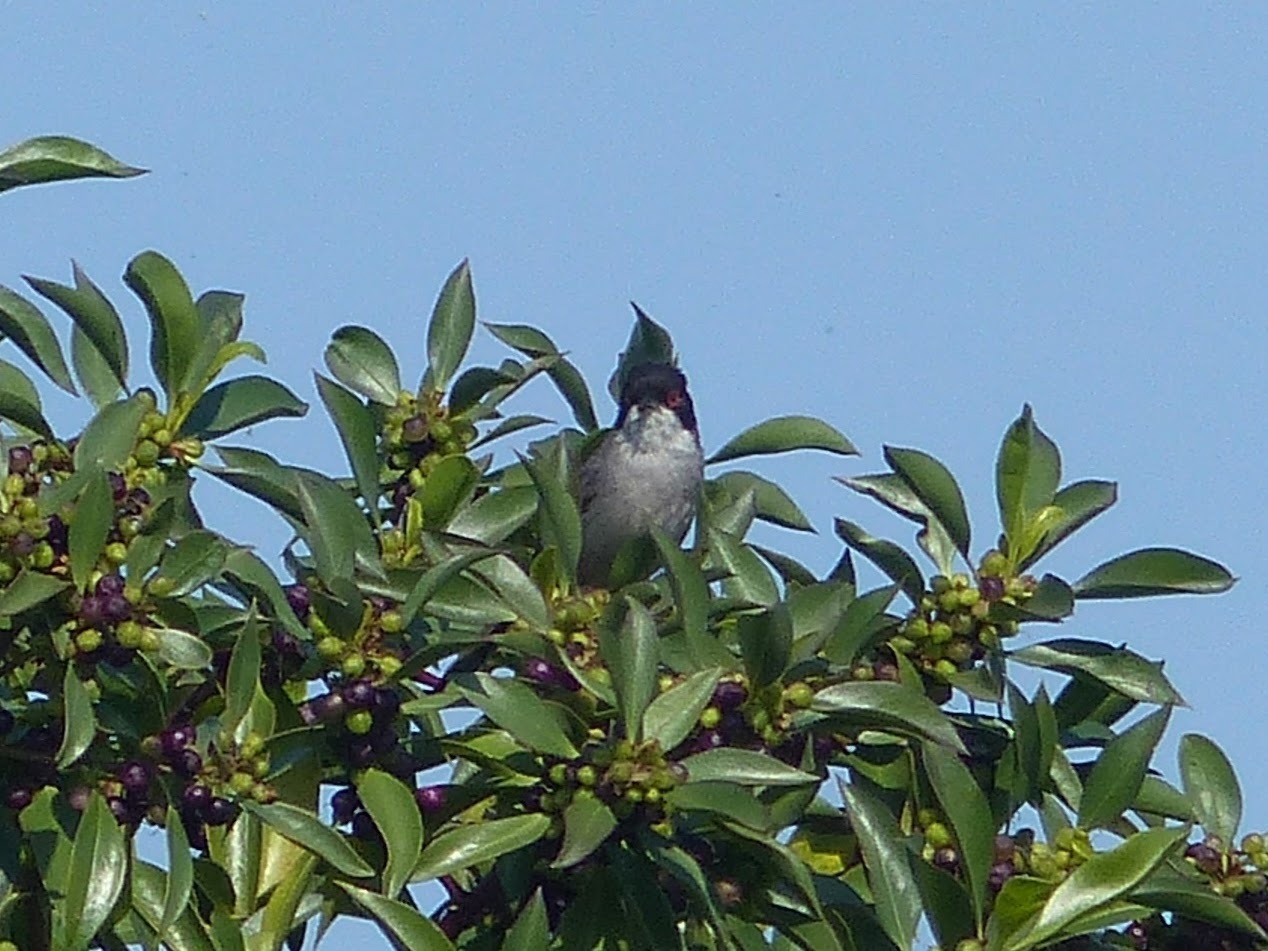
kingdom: Animalia
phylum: Chordata
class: Aves
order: Passeriformes
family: Sylviidae
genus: Curruca
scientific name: Curruca melanocephala
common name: Sardinian warbler
